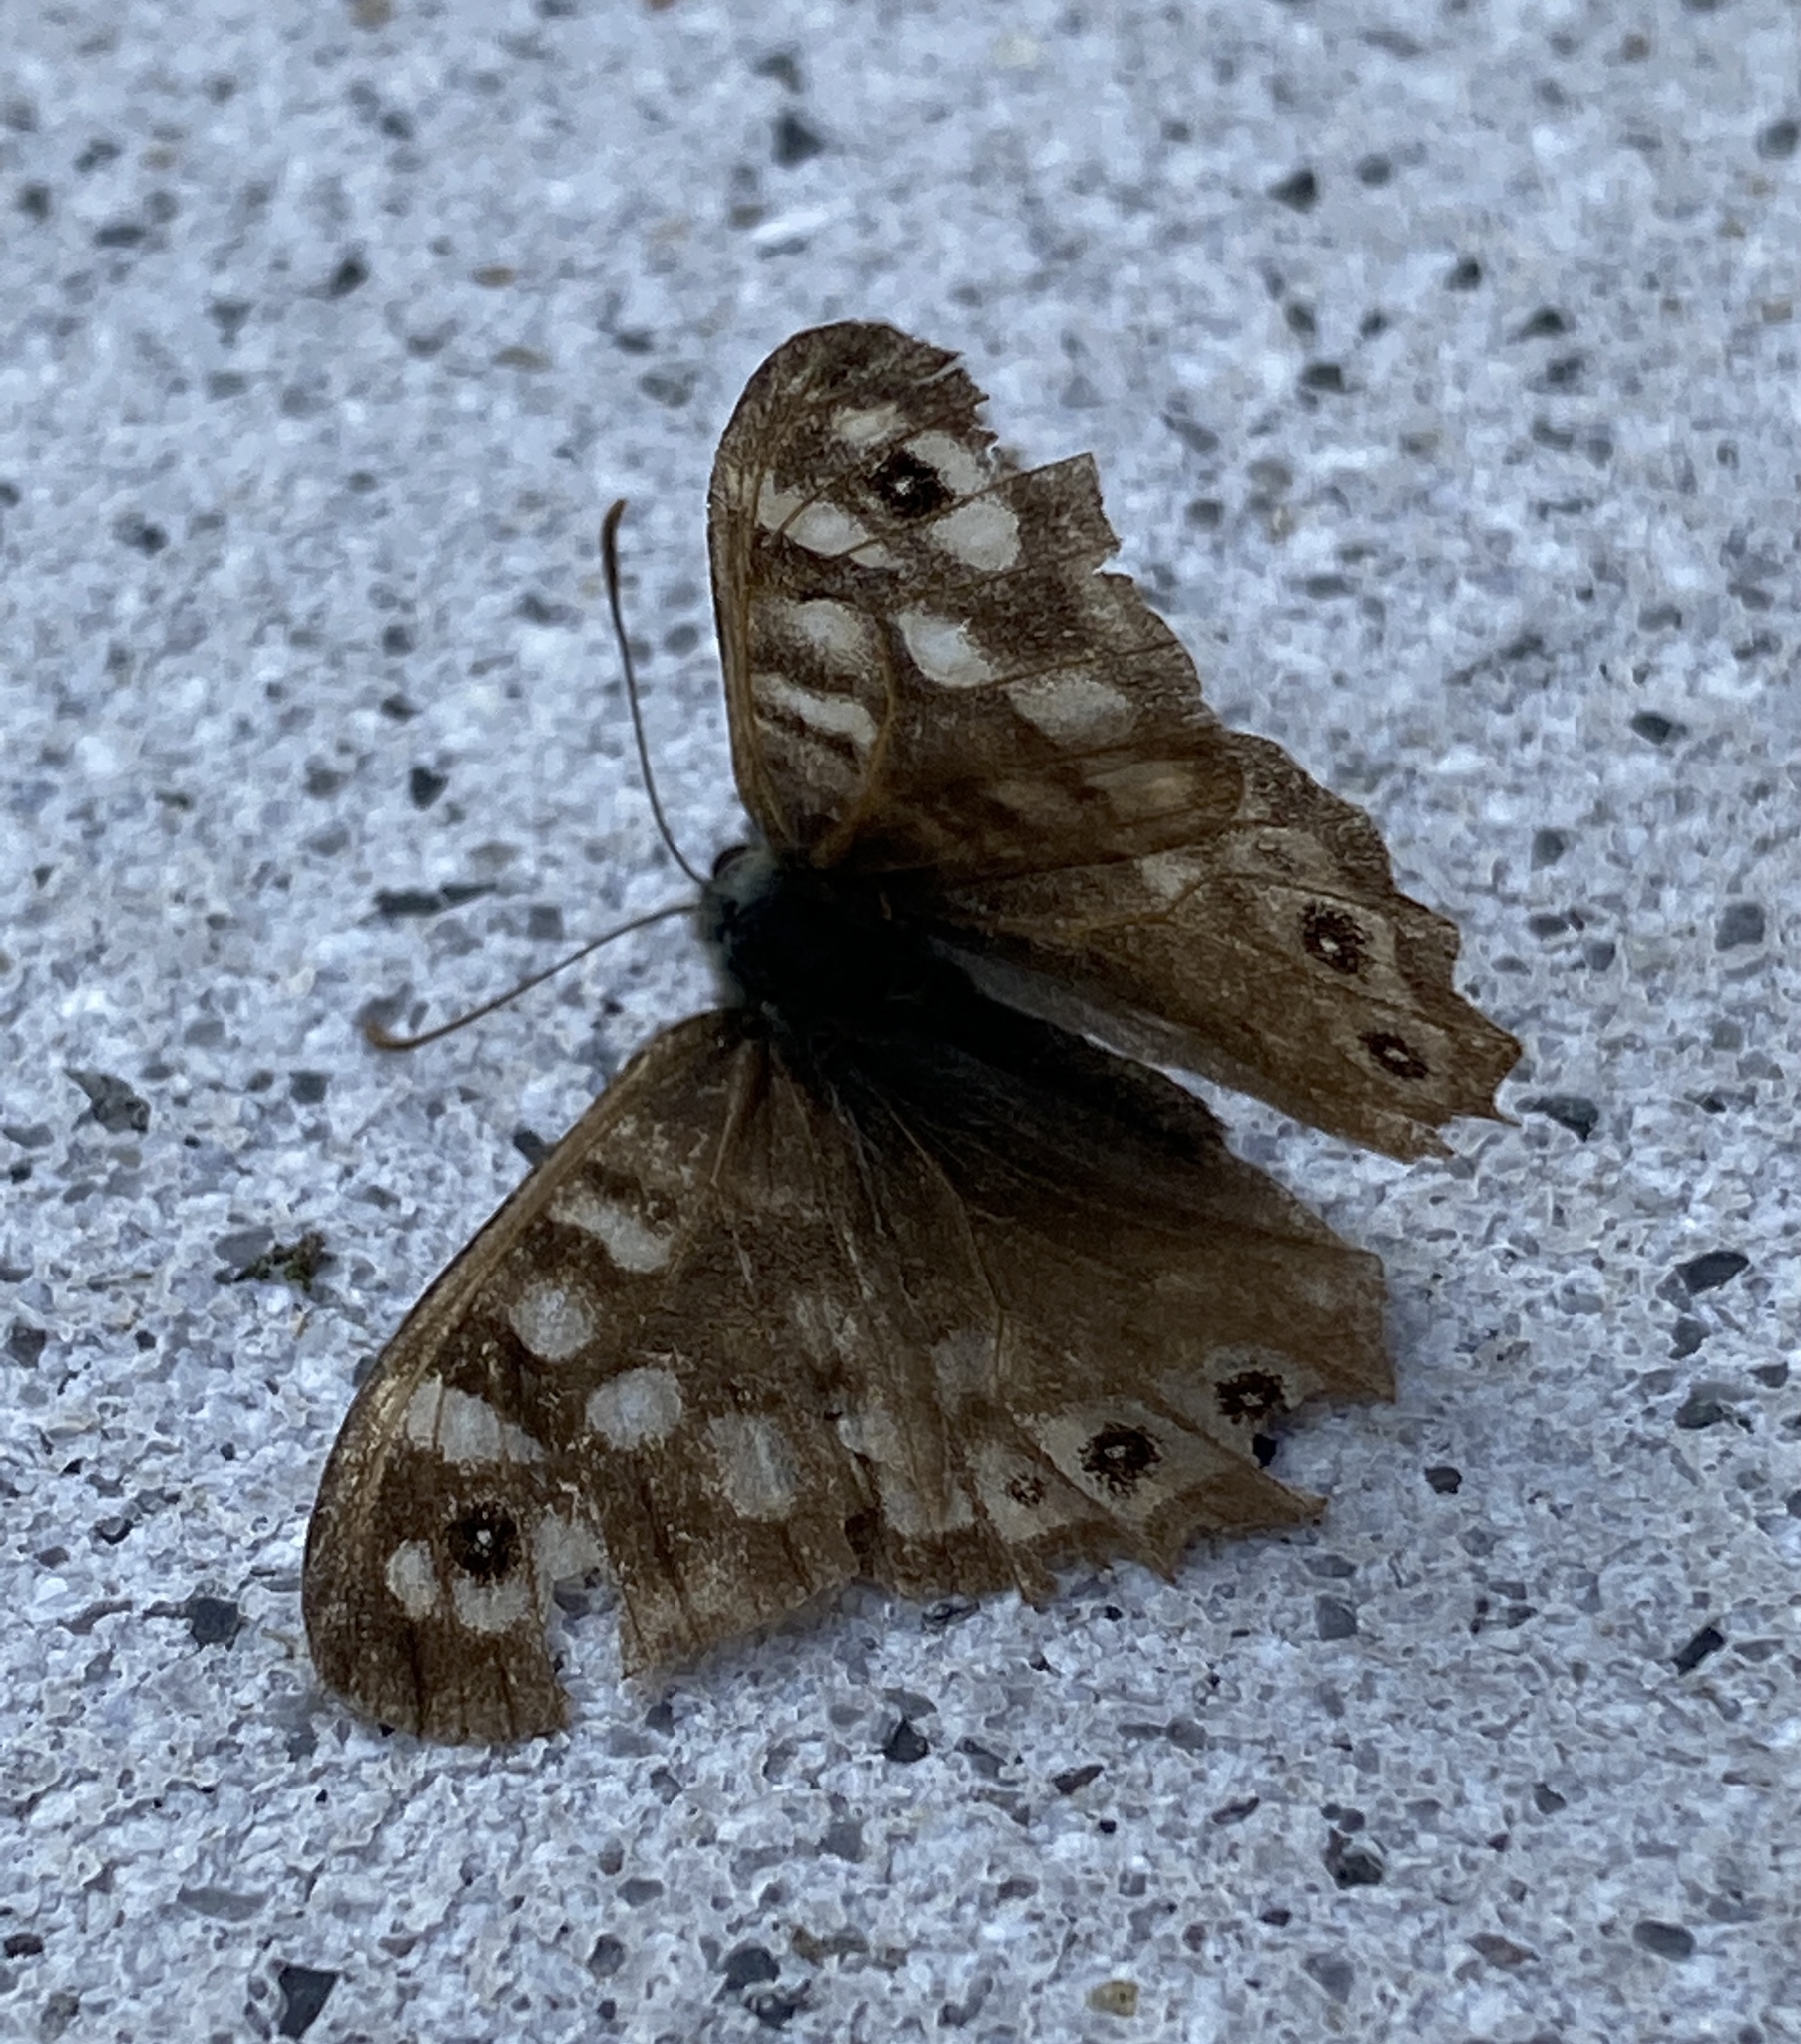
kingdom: Animalia
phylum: Arthropoda
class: Insecta
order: Lepidoptera
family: Nymphalidae
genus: Pararge
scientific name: Pararge aegeria
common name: Speckled wood
